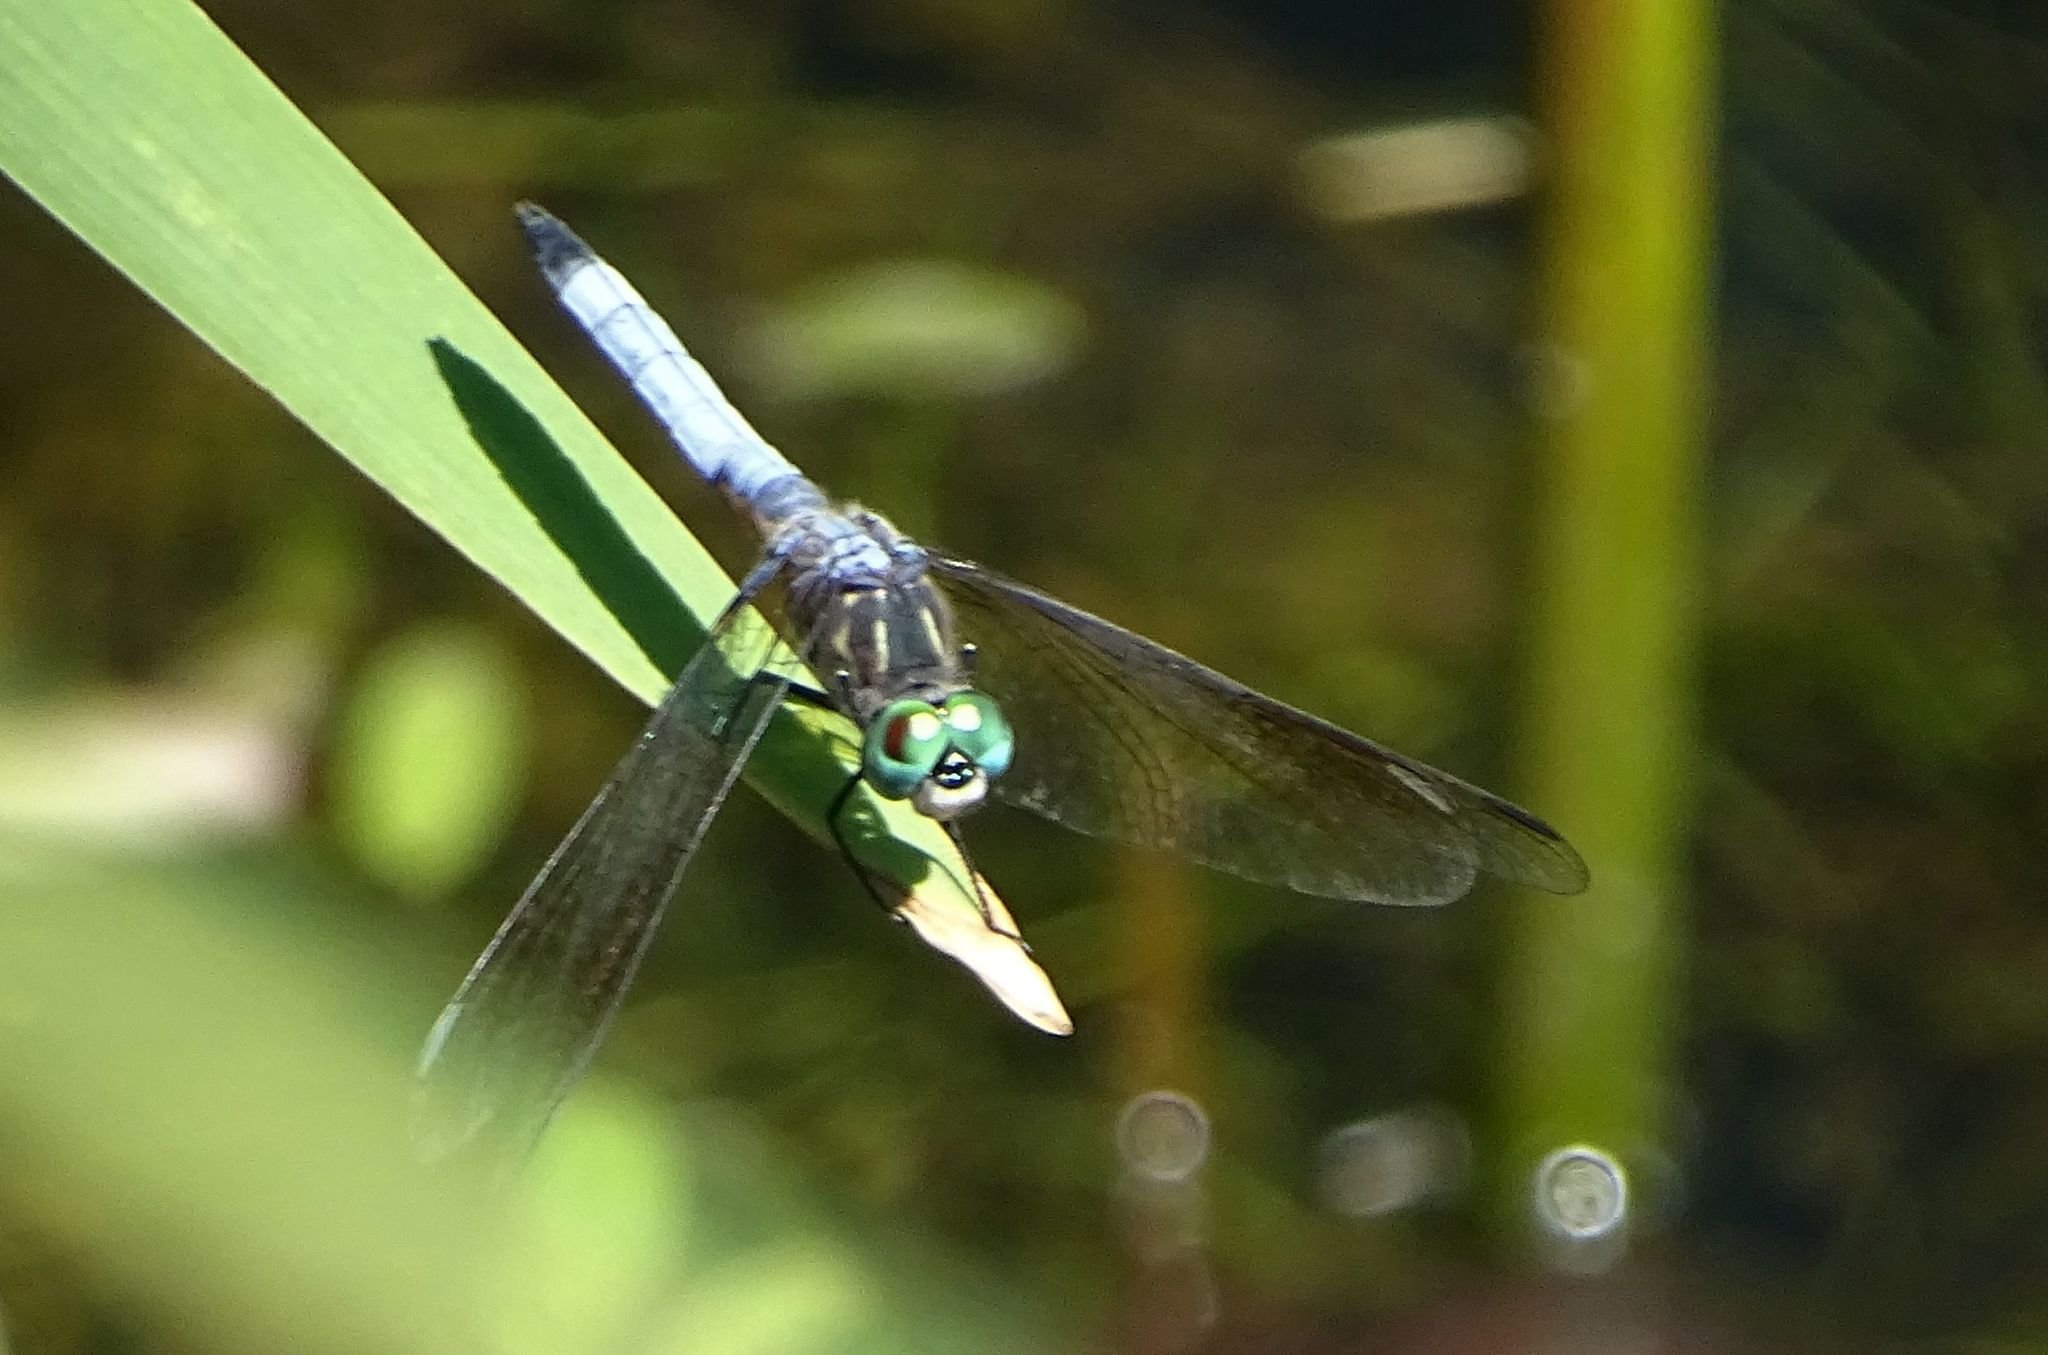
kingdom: Animalia
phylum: Arthropoda
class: Insecta
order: Odonata
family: Libellulidae
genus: Pachydiplax
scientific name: Pachydiplax longipennis
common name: Blue dasher
